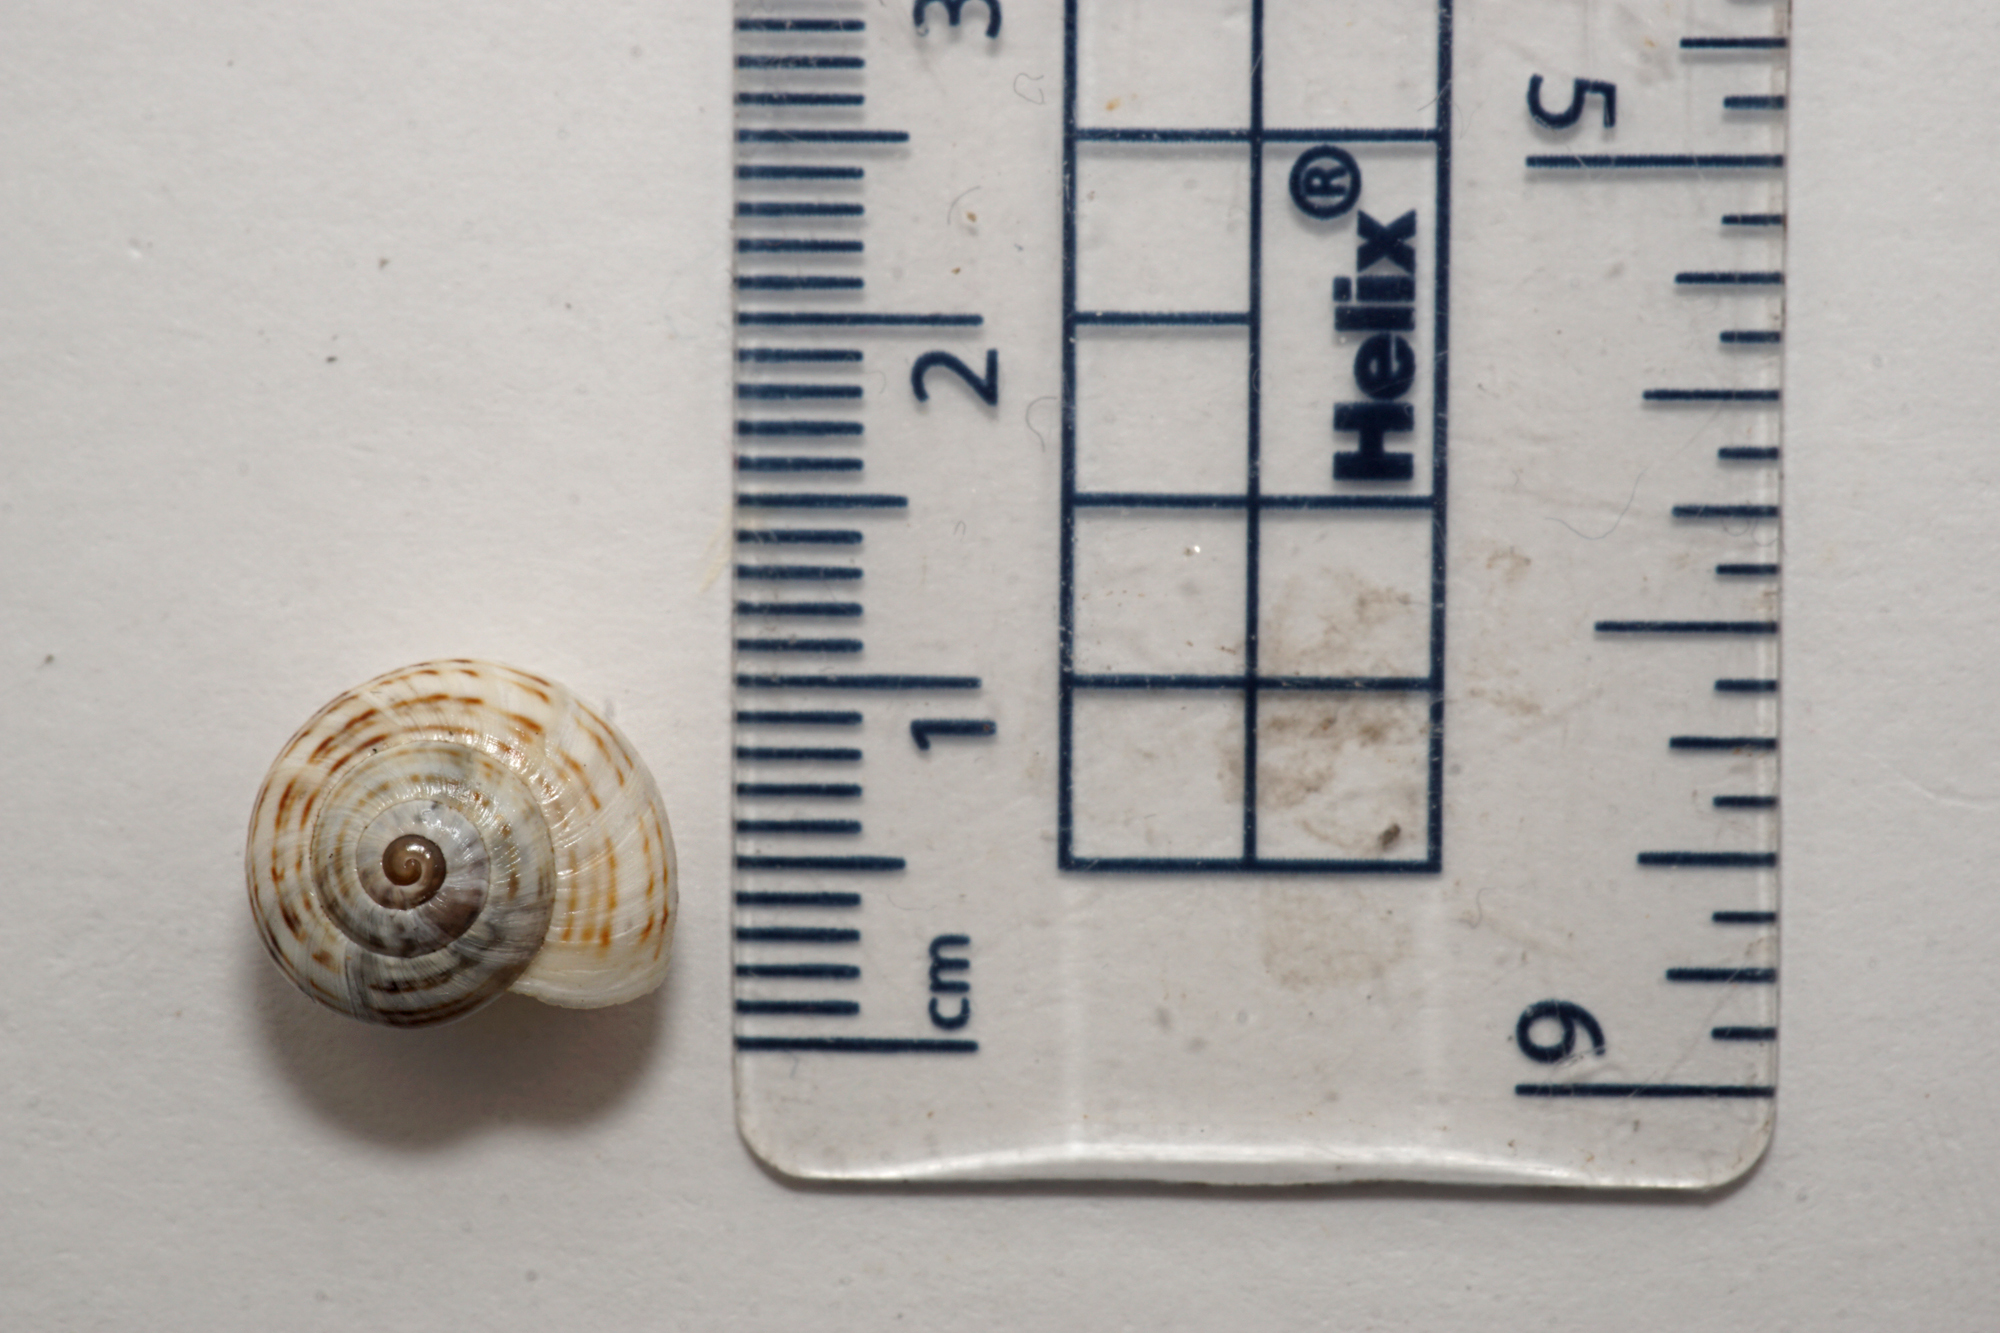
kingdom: Animalia
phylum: Mollusca
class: Gastropoda
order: Stylommatophora
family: Helicidae
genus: Theba
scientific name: Theba pisana
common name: White snail
